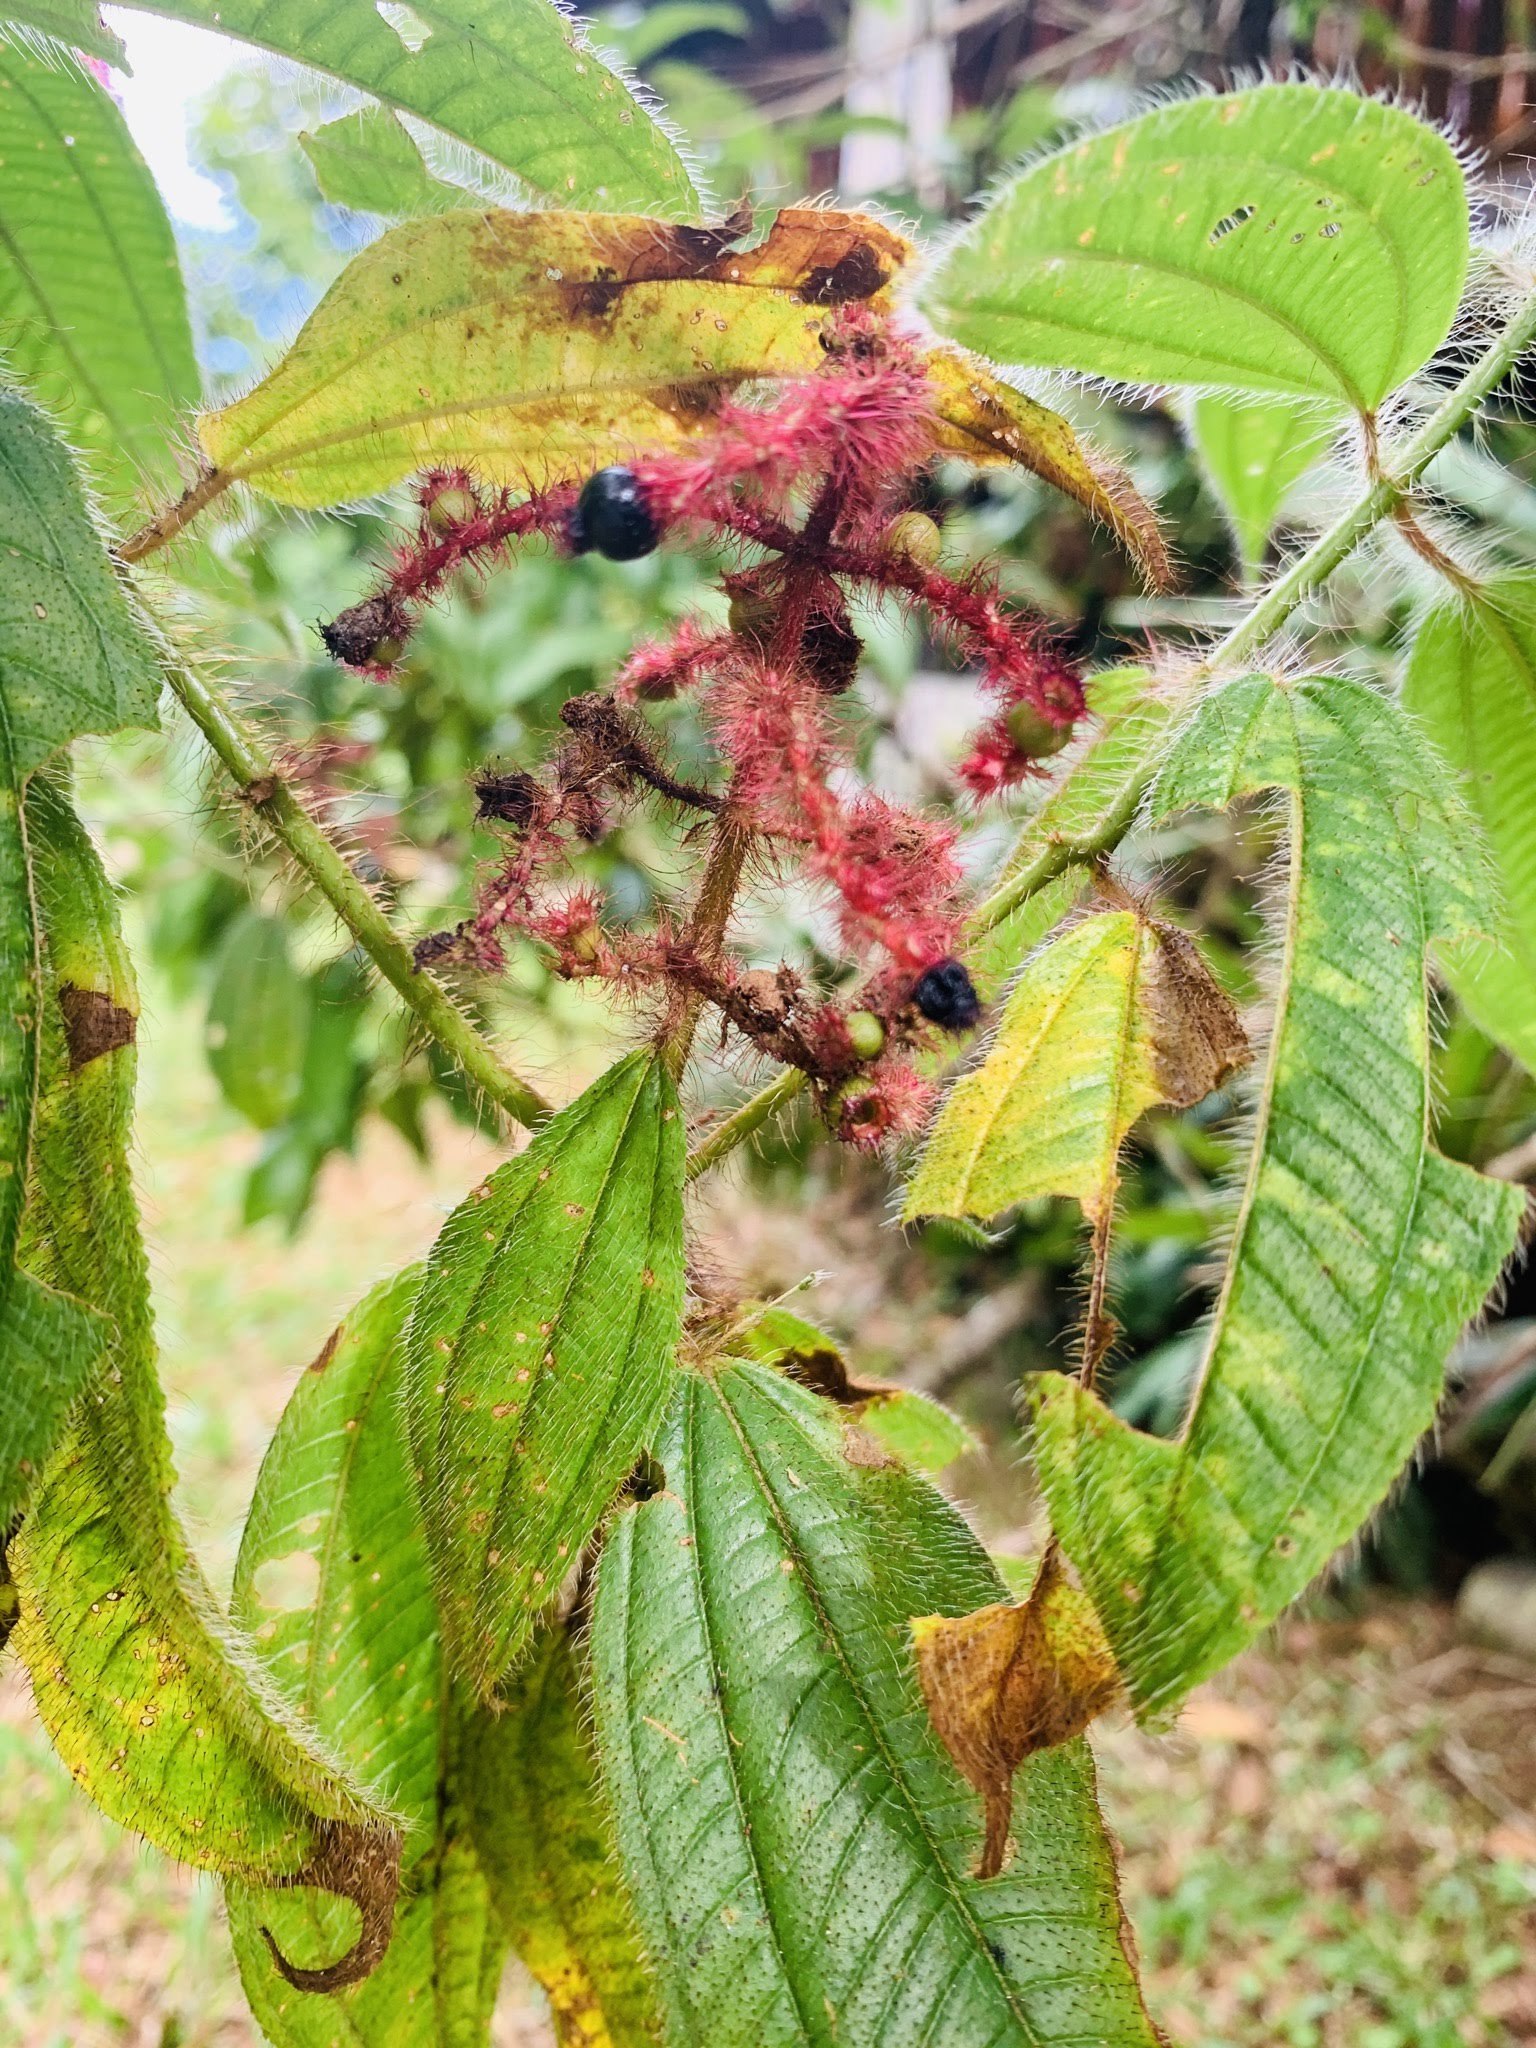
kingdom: Plantae
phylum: Tracheophyta
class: Magnoliopsida
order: Myrtales
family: Melastomataceae
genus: Miconia
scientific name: Miconia lacera
